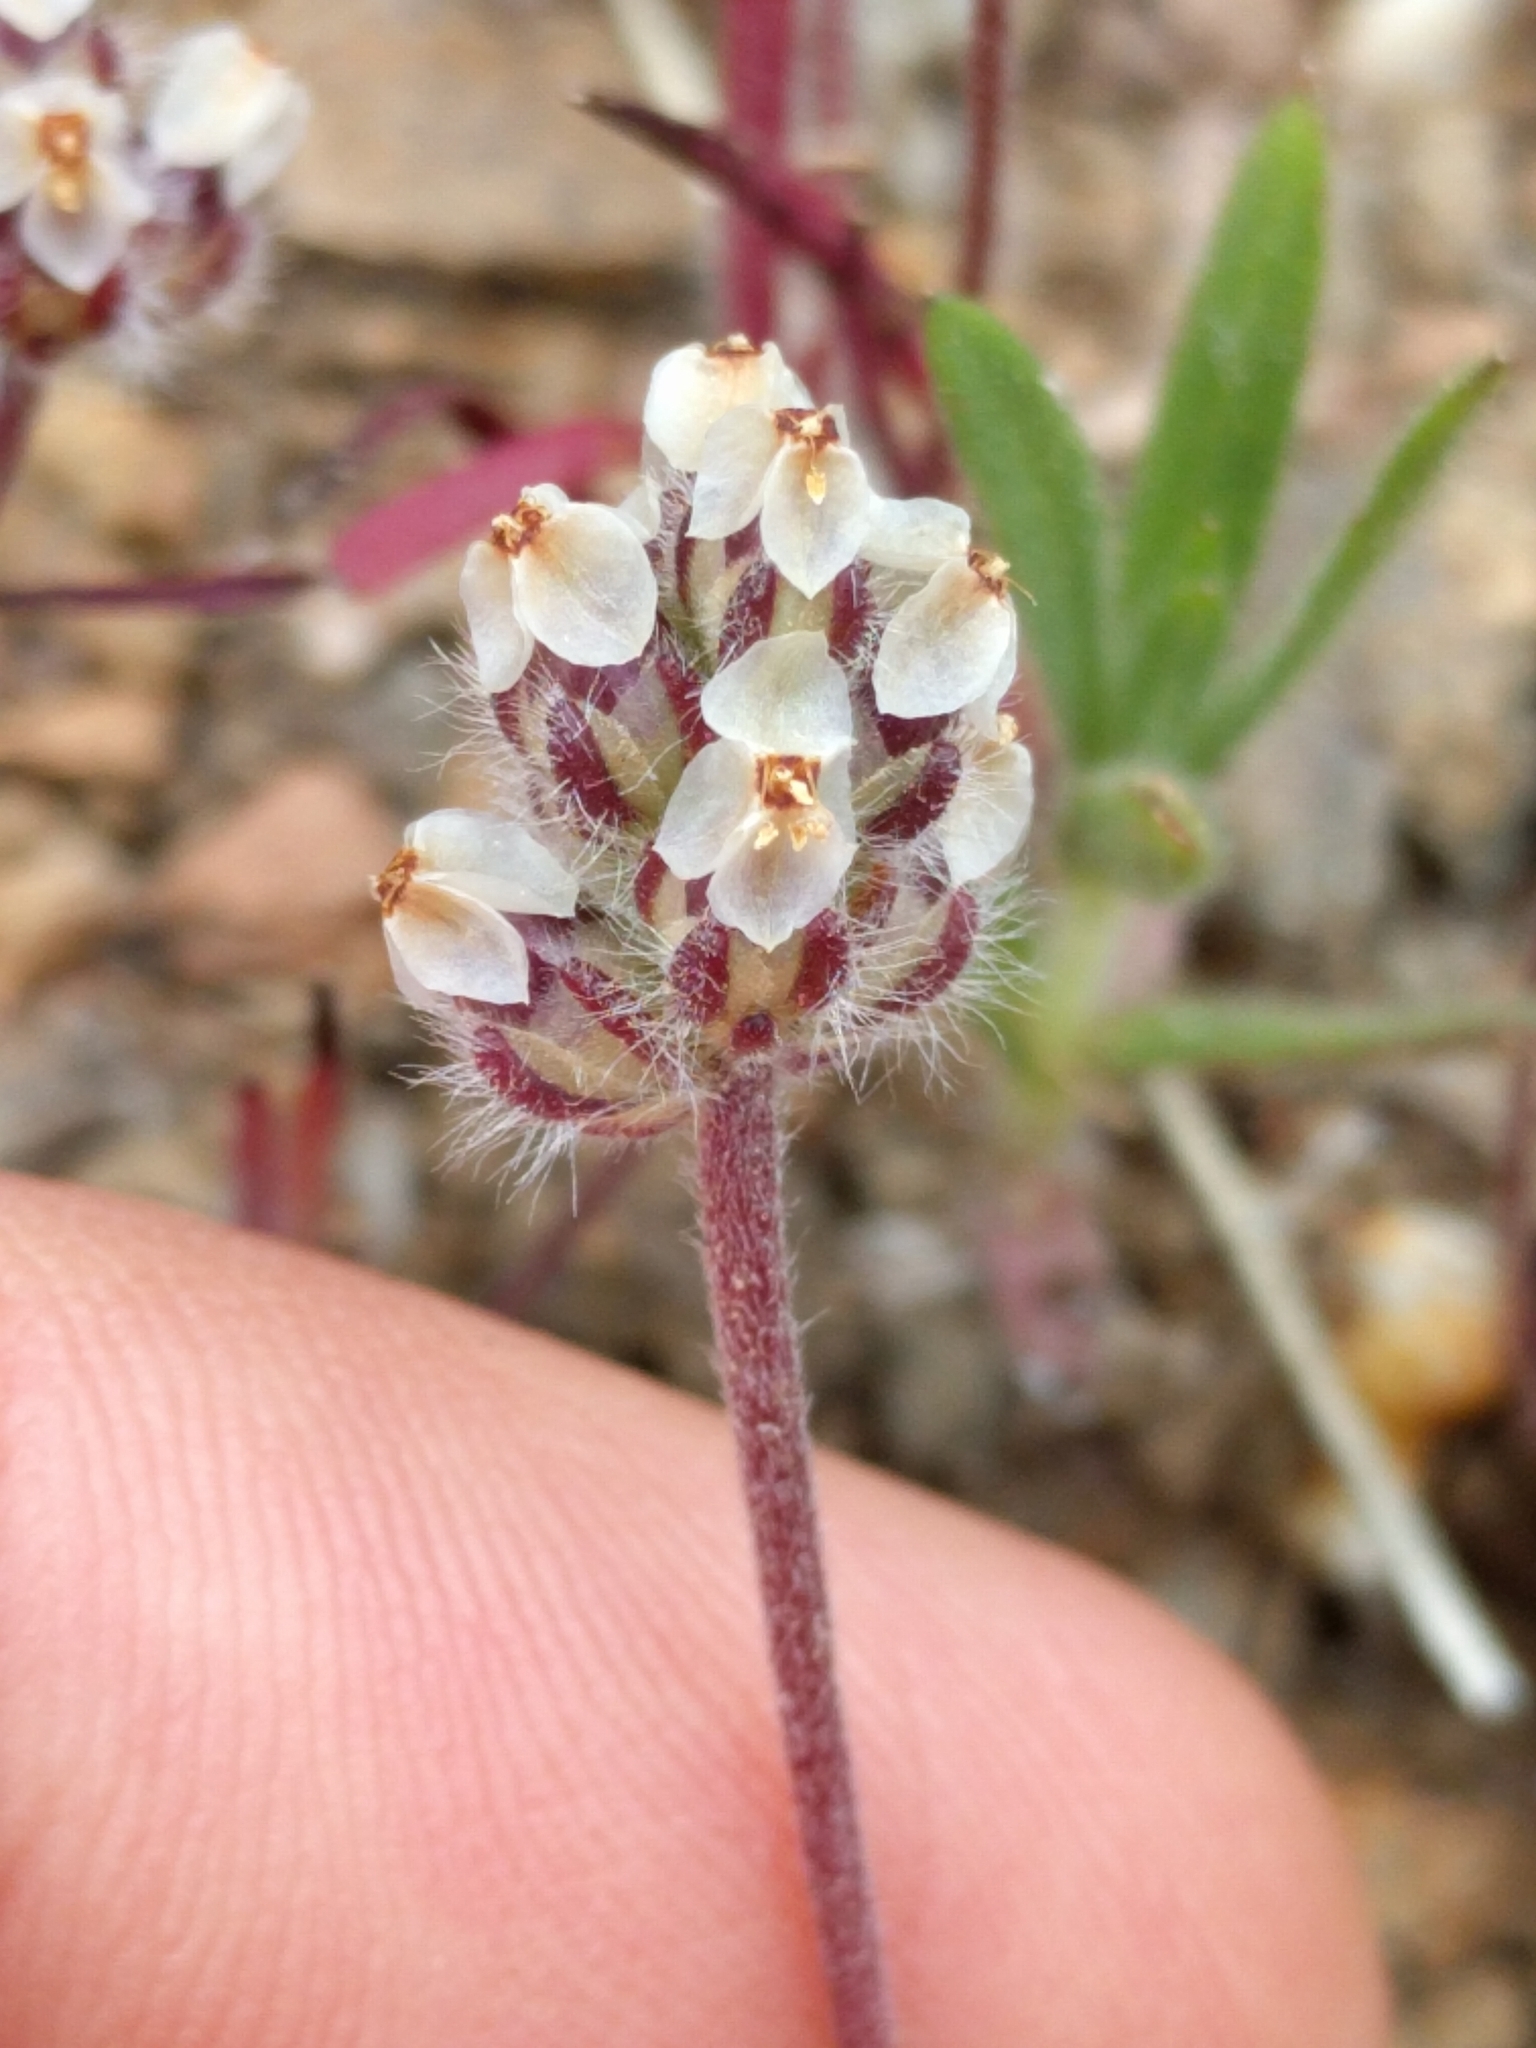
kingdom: Plantae
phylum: Tracheophyta
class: Magnoliopsida
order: Lamiales
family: Plantaginaceae
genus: Plantago
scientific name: Plantago erecta
